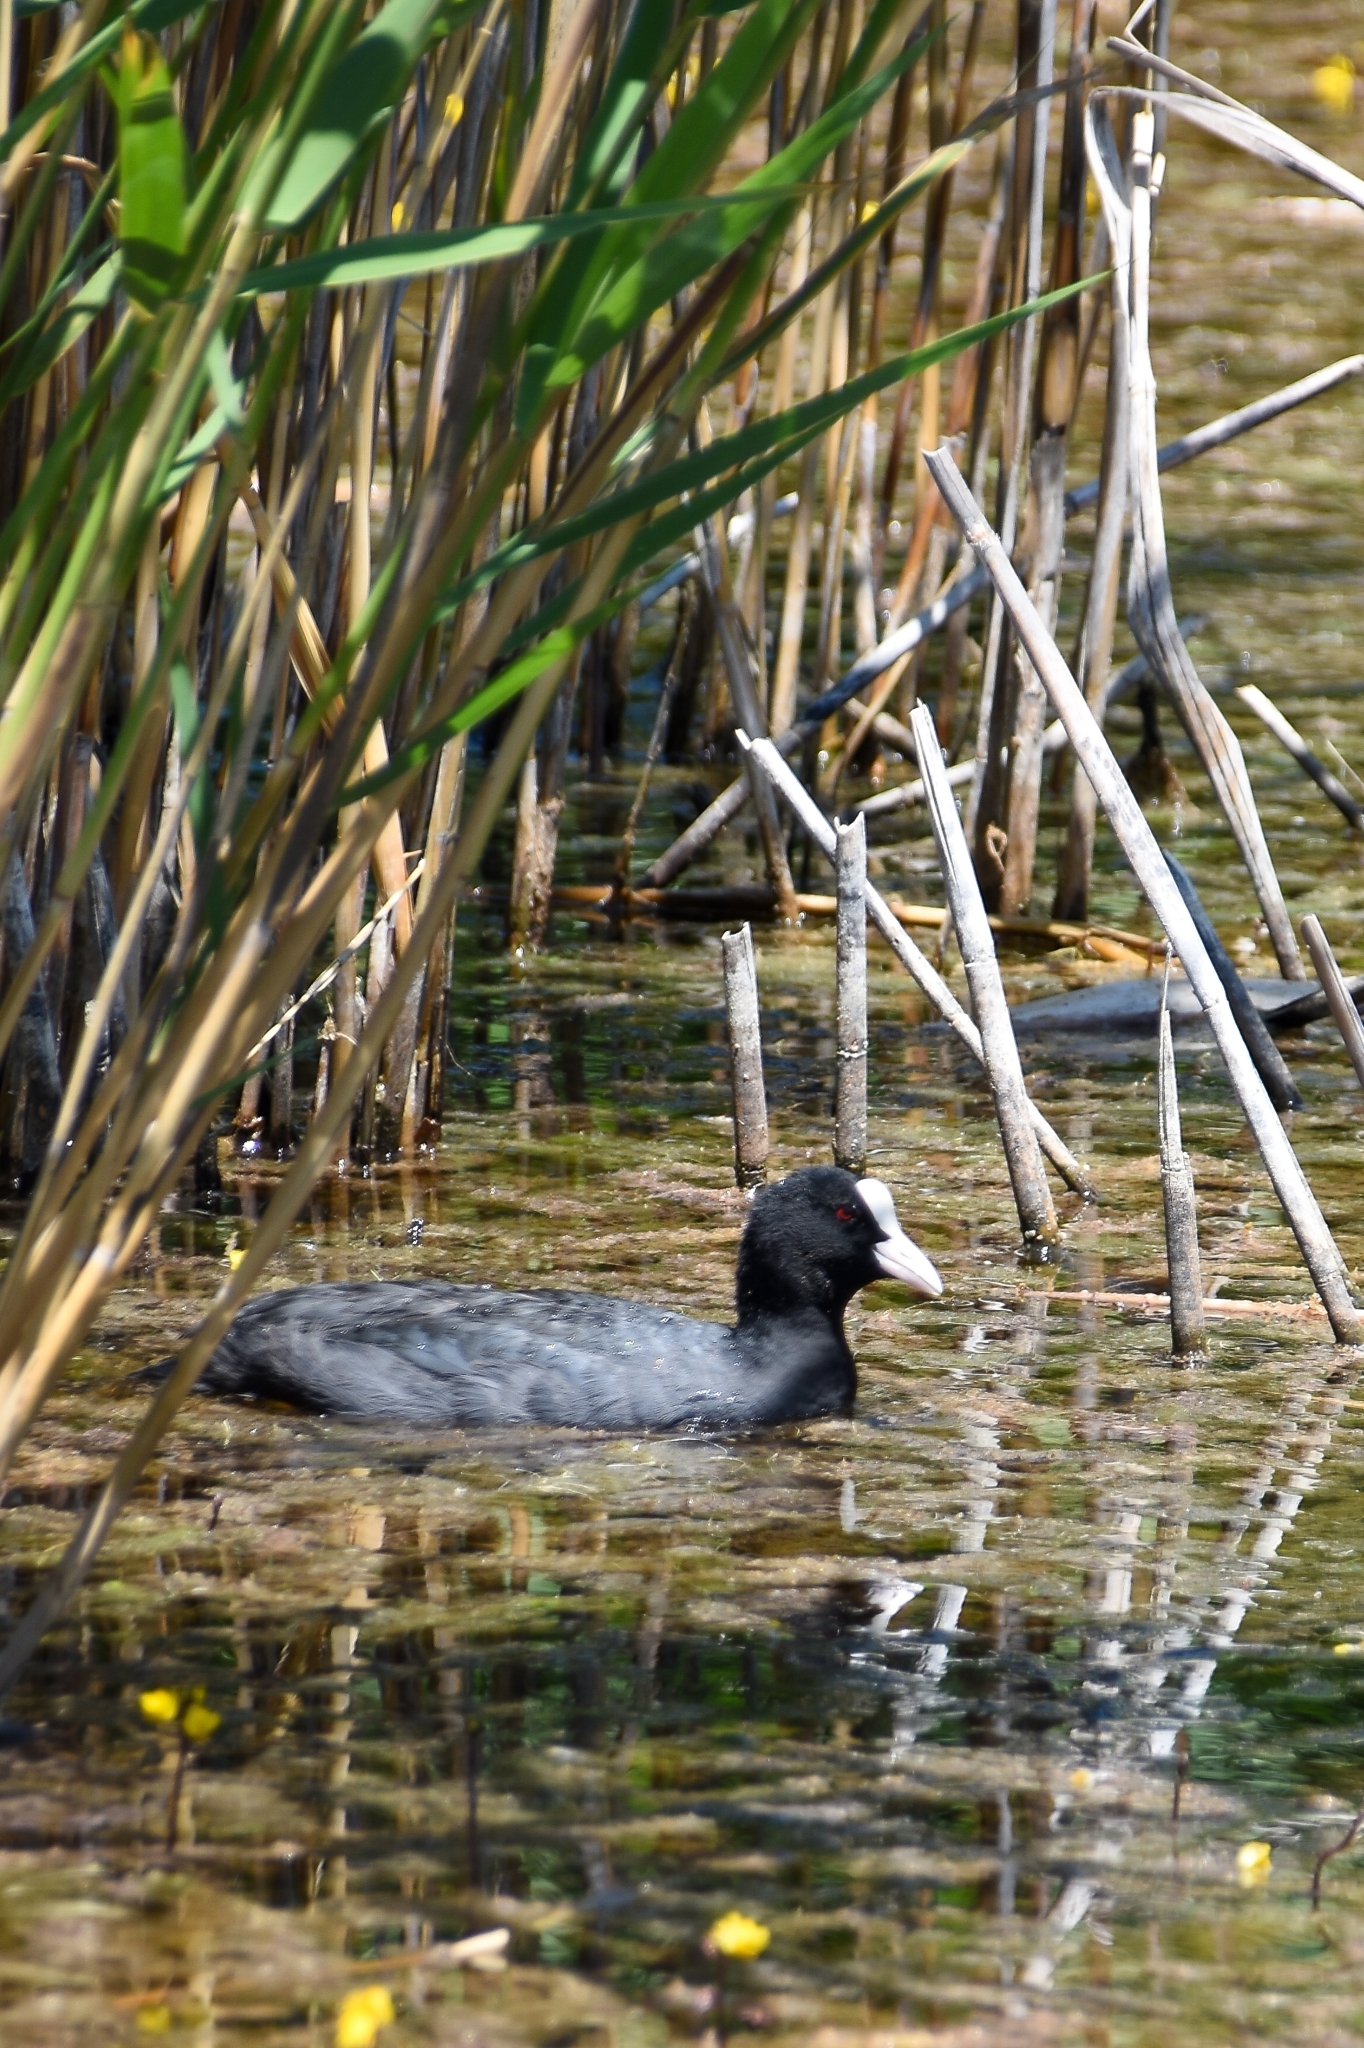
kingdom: Animalia
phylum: Chordata
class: Aves
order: Gruiformes
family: Rallidae
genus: Fulica
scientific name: Fulica atra
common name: Eurasian coot
